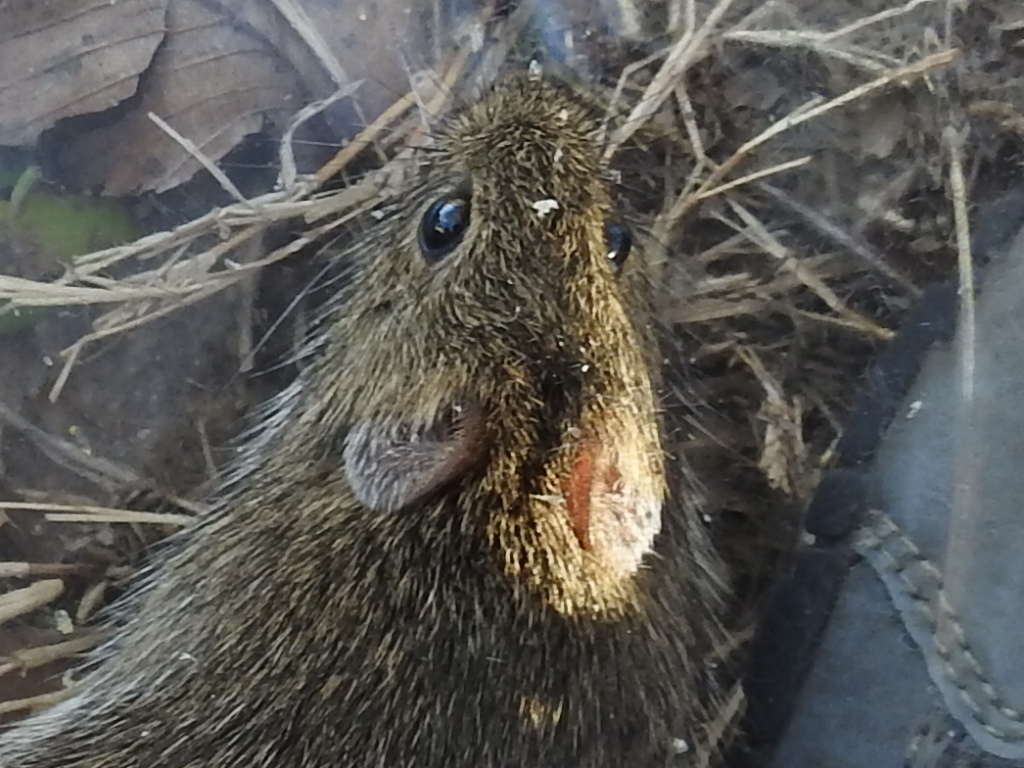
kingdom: Animalia
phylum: Chordata
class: Mammalia
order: Rodentia
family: Cricetidae
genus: Sigmodon
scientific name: Sigmodon hispidus
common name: Hispid cotton rat
